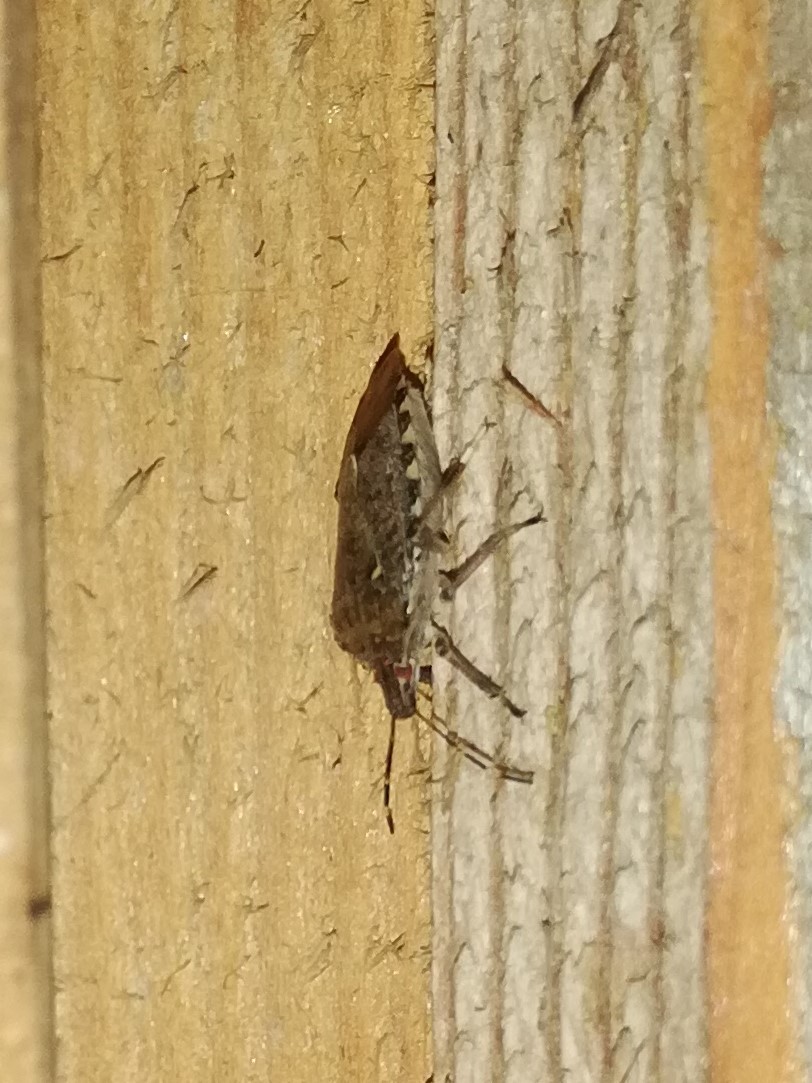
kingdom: Animalia
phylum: Arthropoda
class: Insecta
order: Hemiptera
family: Pentatomidae
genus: Halyomorpha
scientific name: Halyomorpha halys
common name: Brown marmorated stink bug
